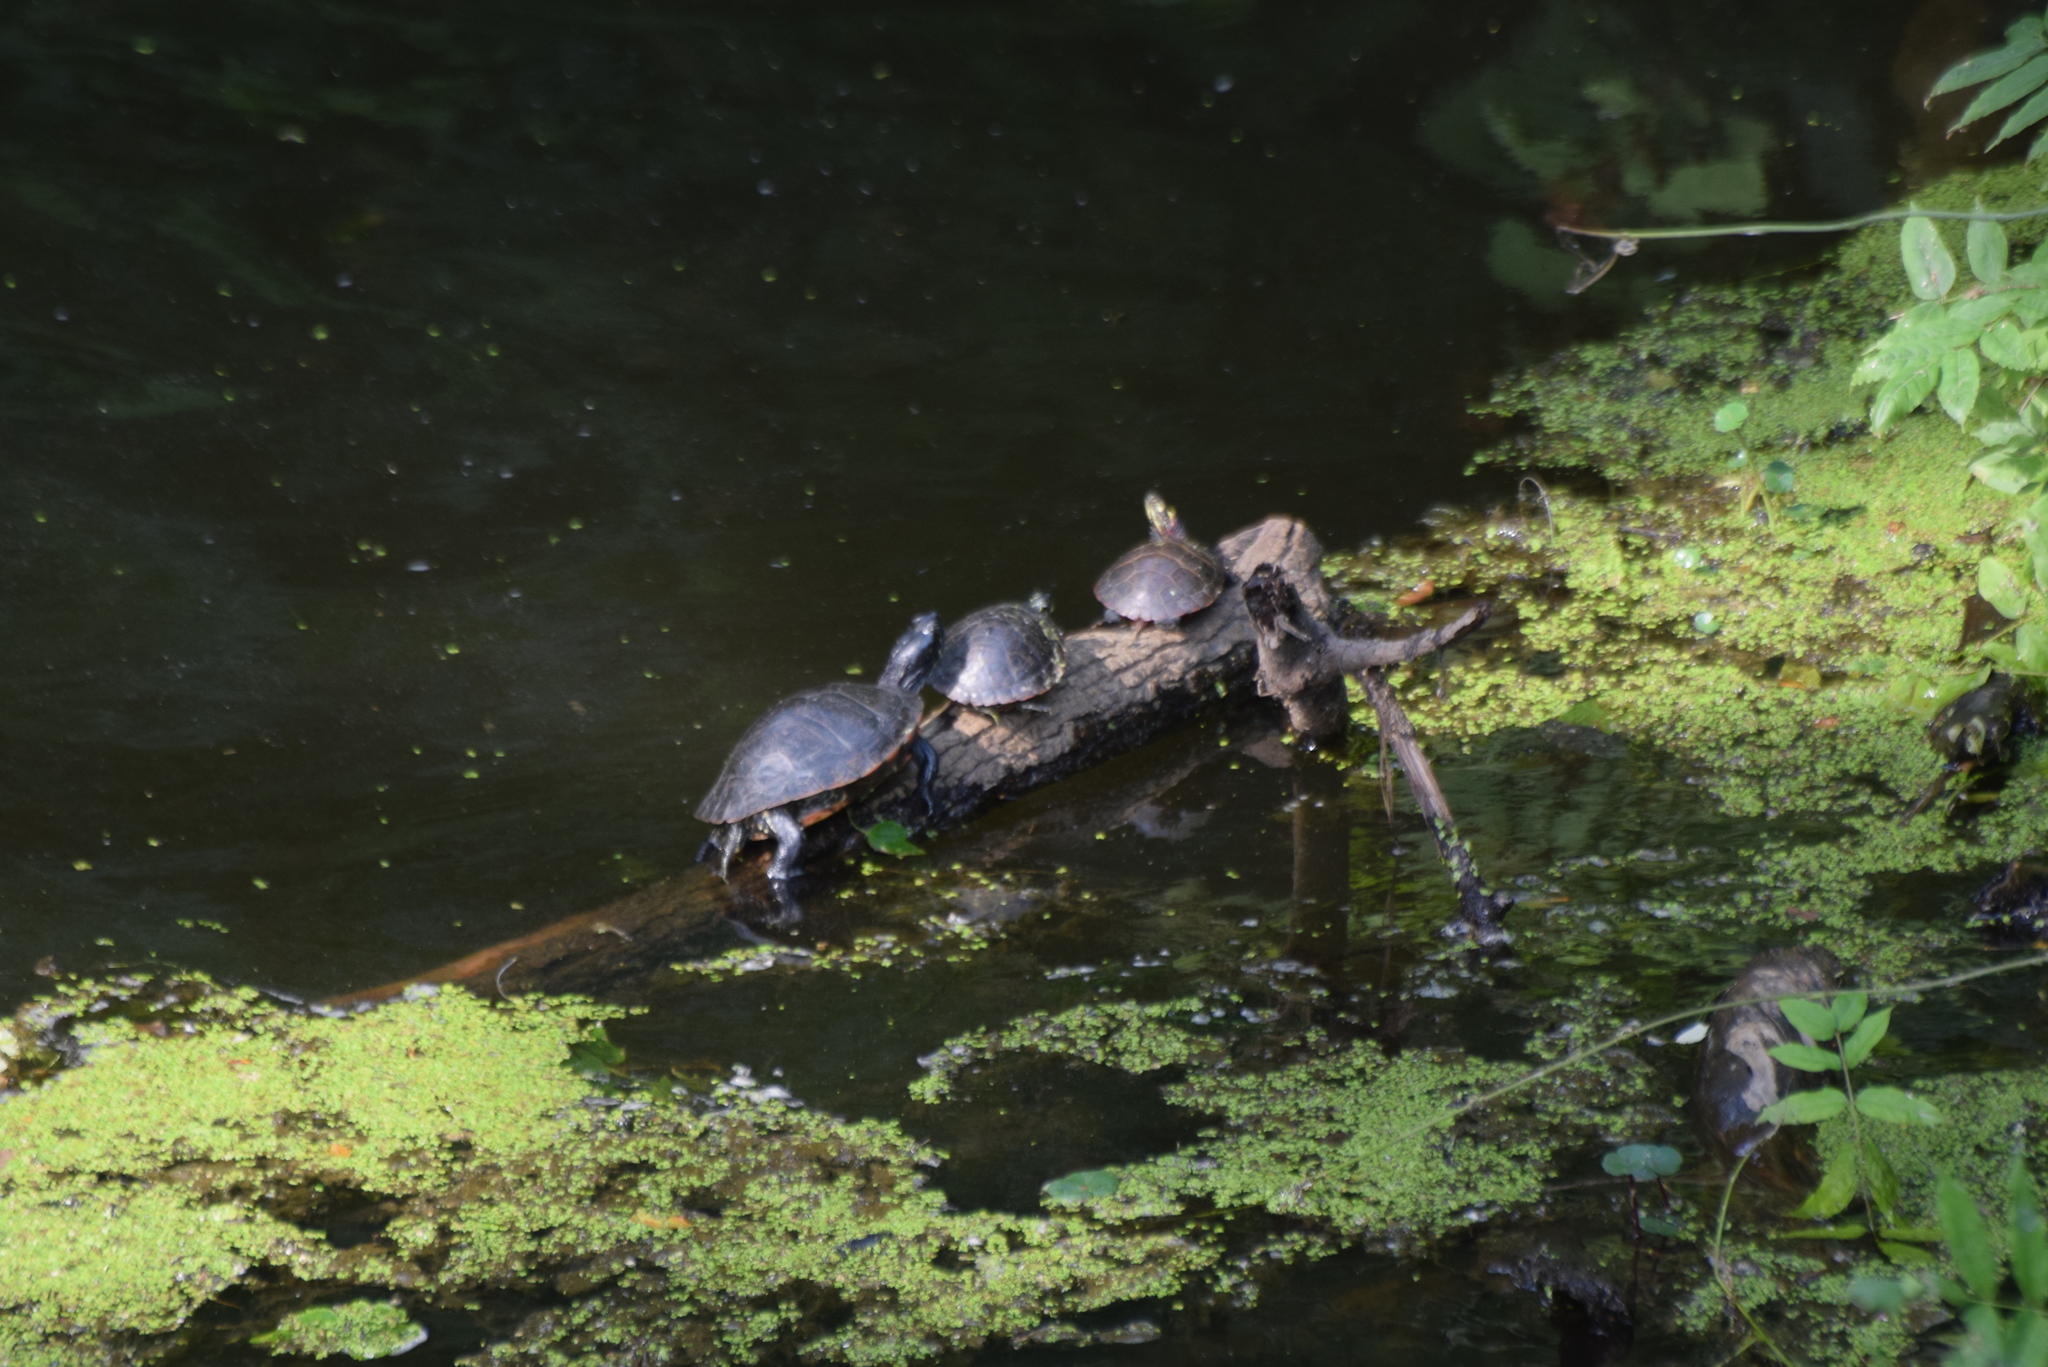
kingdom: Animalia
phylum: Chordata
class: Testudines
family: Emydidae
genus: Chrysemys
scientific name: Chrysemys picta
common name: Painted turtle
